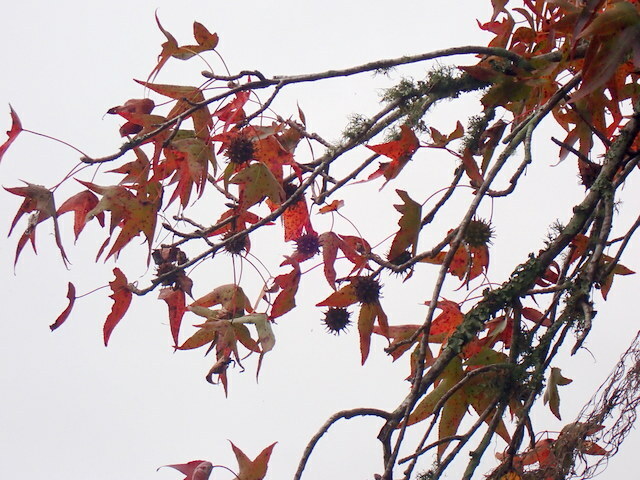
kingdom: Plantae
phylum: Tracheophyta
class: Magnoliopsida
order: Saxifragales
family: Altingiaceae
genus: Liquidambar
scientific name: Liquidambar styraciflua
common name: Sweet gum
